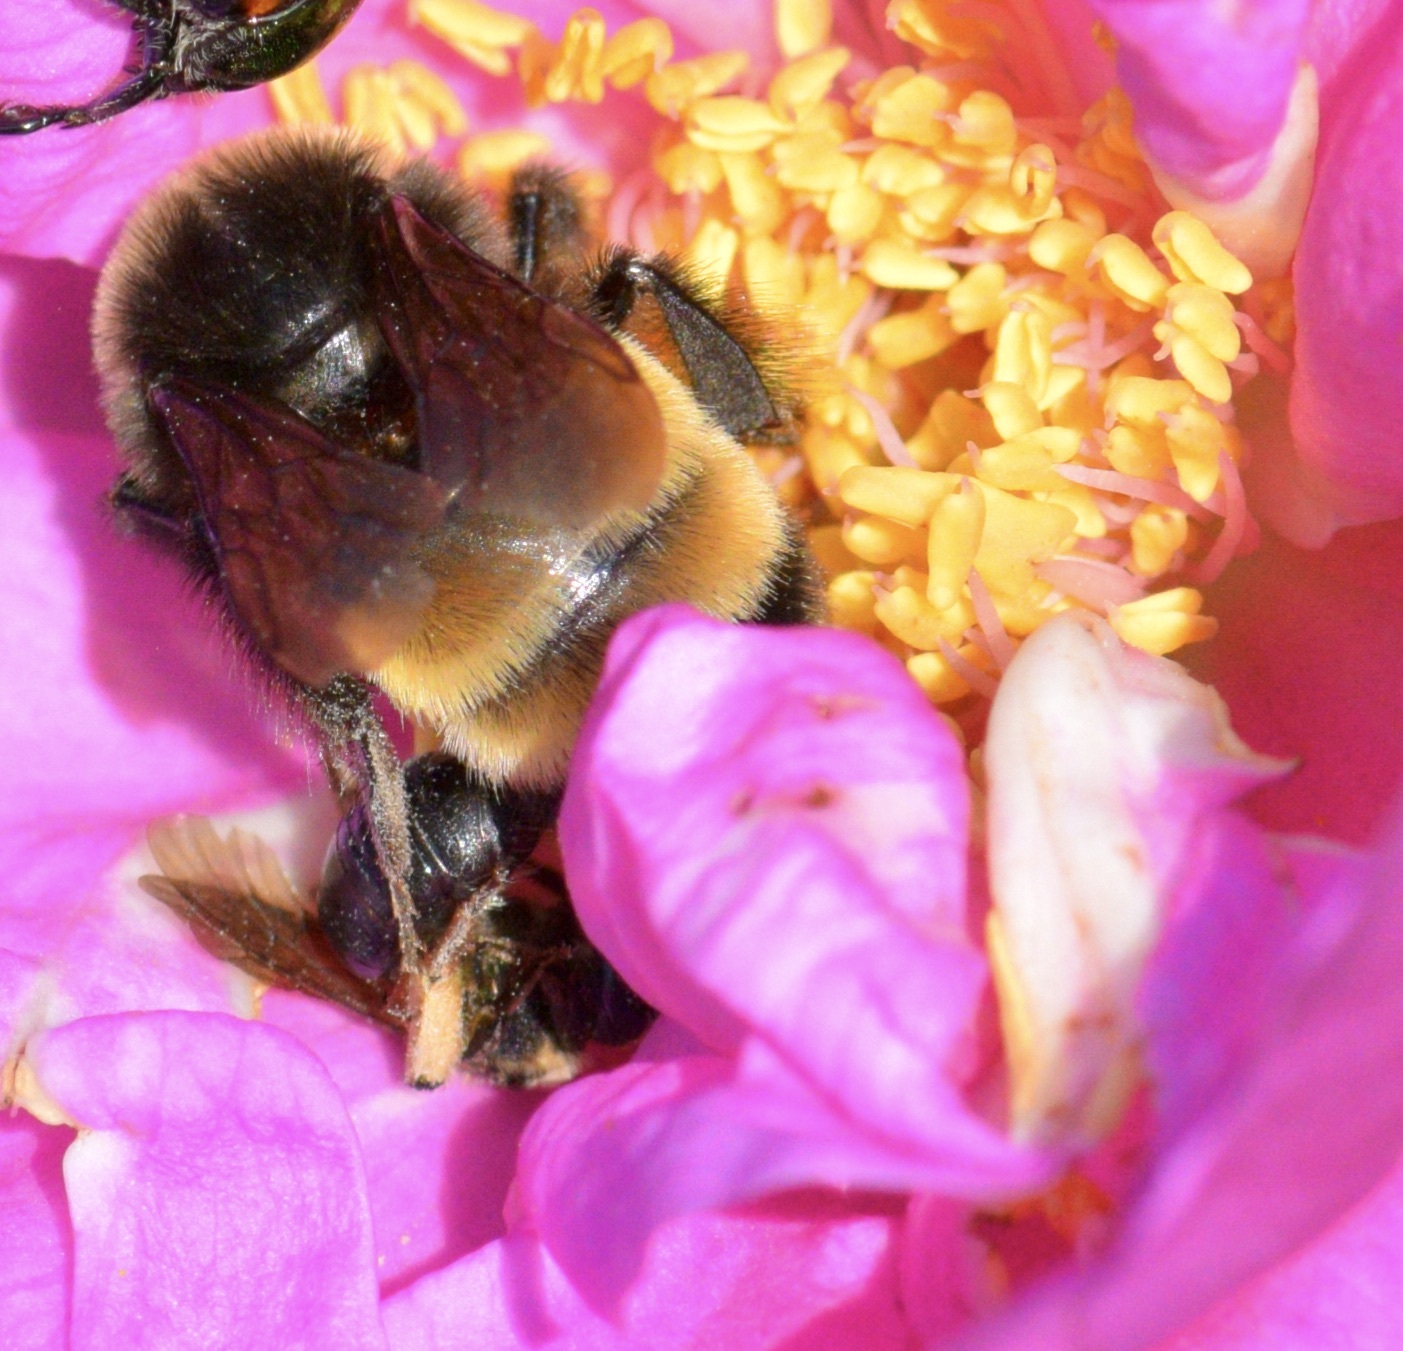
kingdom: Animalia
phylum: Arthropoda
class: Insecta
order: Hymenoptera
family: Apidae
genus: Bombus
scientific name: Bombus terricola
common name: Yellow-banded bumble bee
